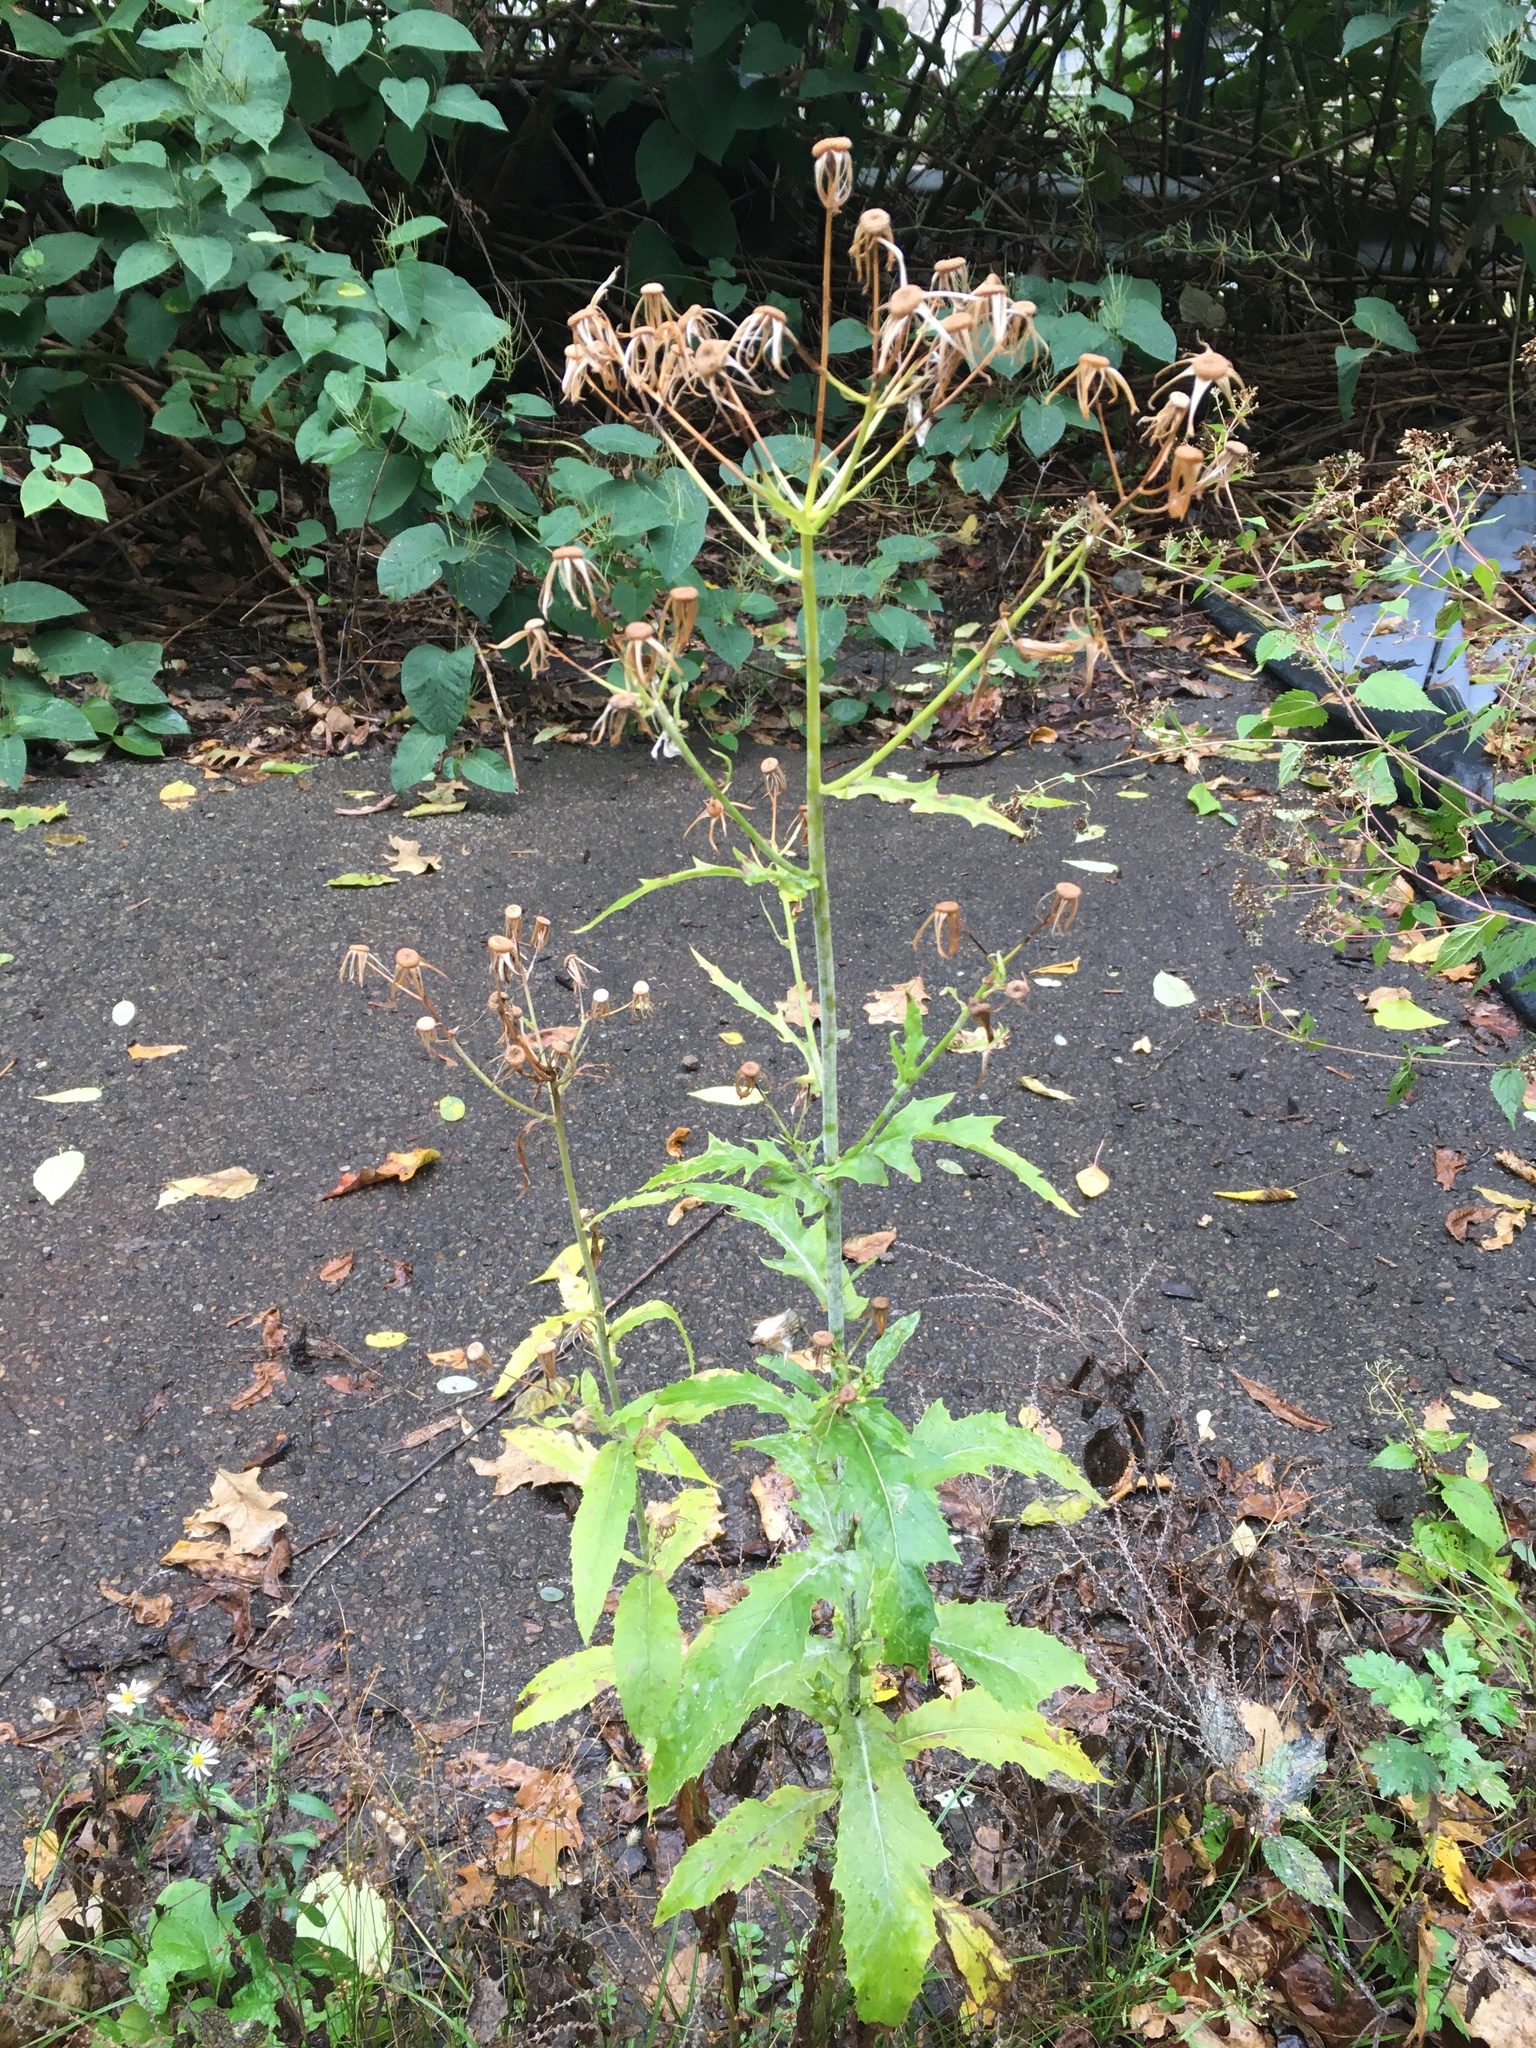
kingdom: Plantae
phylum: Tracheophyta
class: Magnoliopsida
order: Asterales
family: Asteraceae
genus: Erechtites
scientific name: Erechtites hieraciifolius
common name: American burnweed
